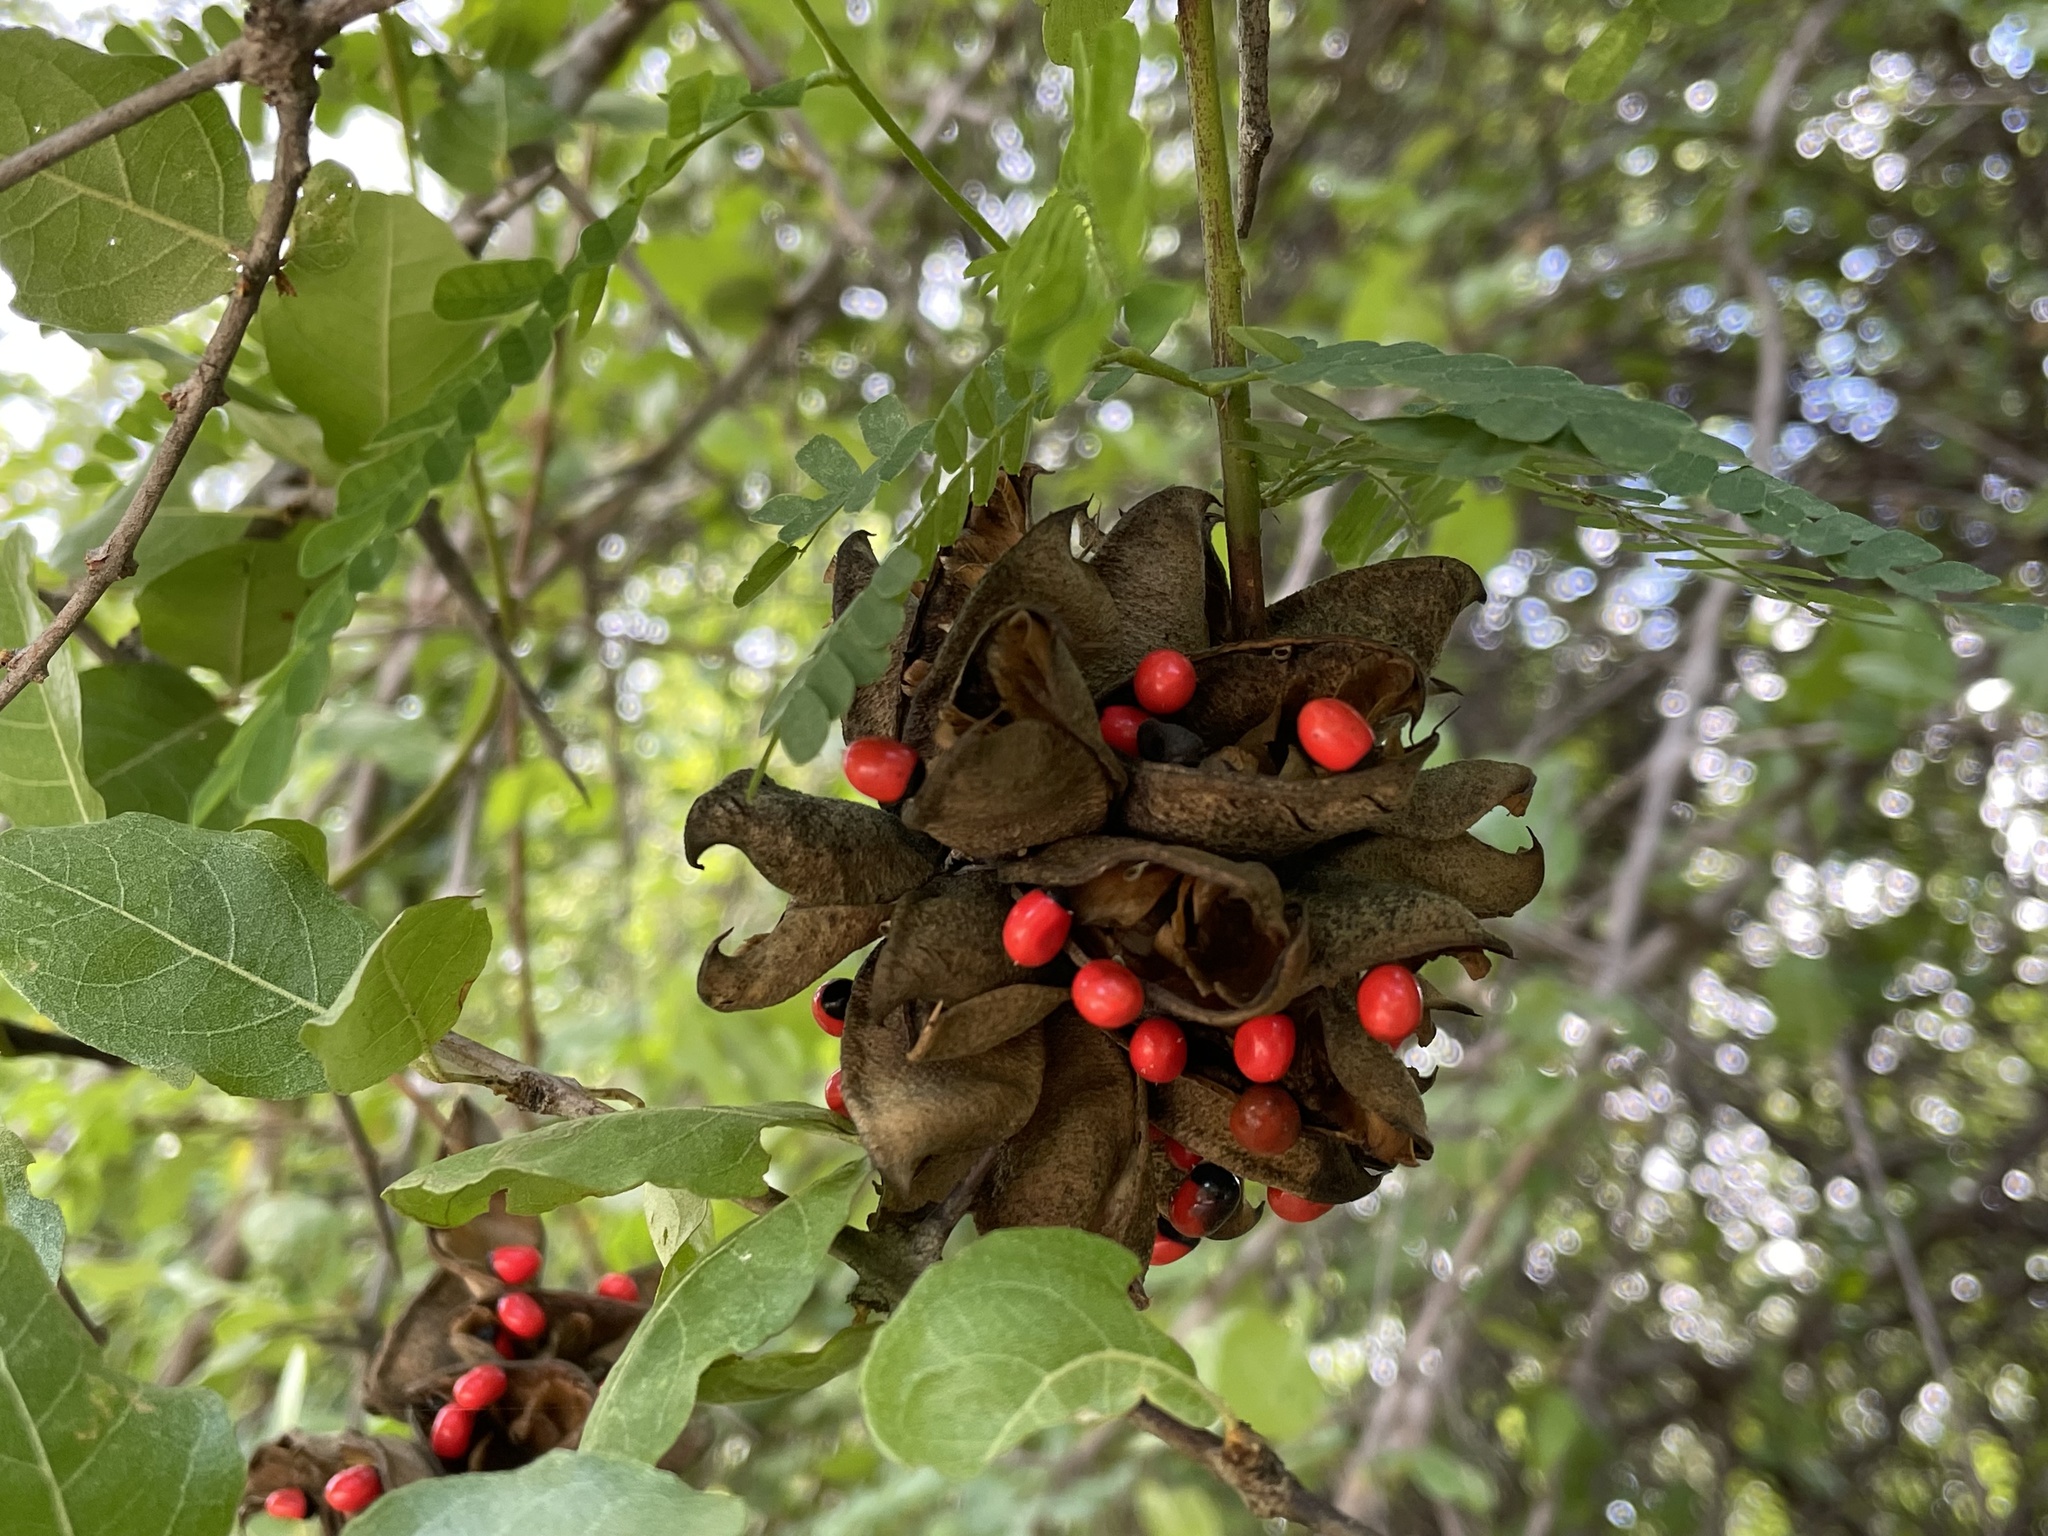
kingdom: Plantae
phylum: Tracheophyta
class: Magnoliopsida
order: Fabales
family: Fabaceae
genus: Abrus
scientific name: Abrus precatorius
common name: Rosarypea
